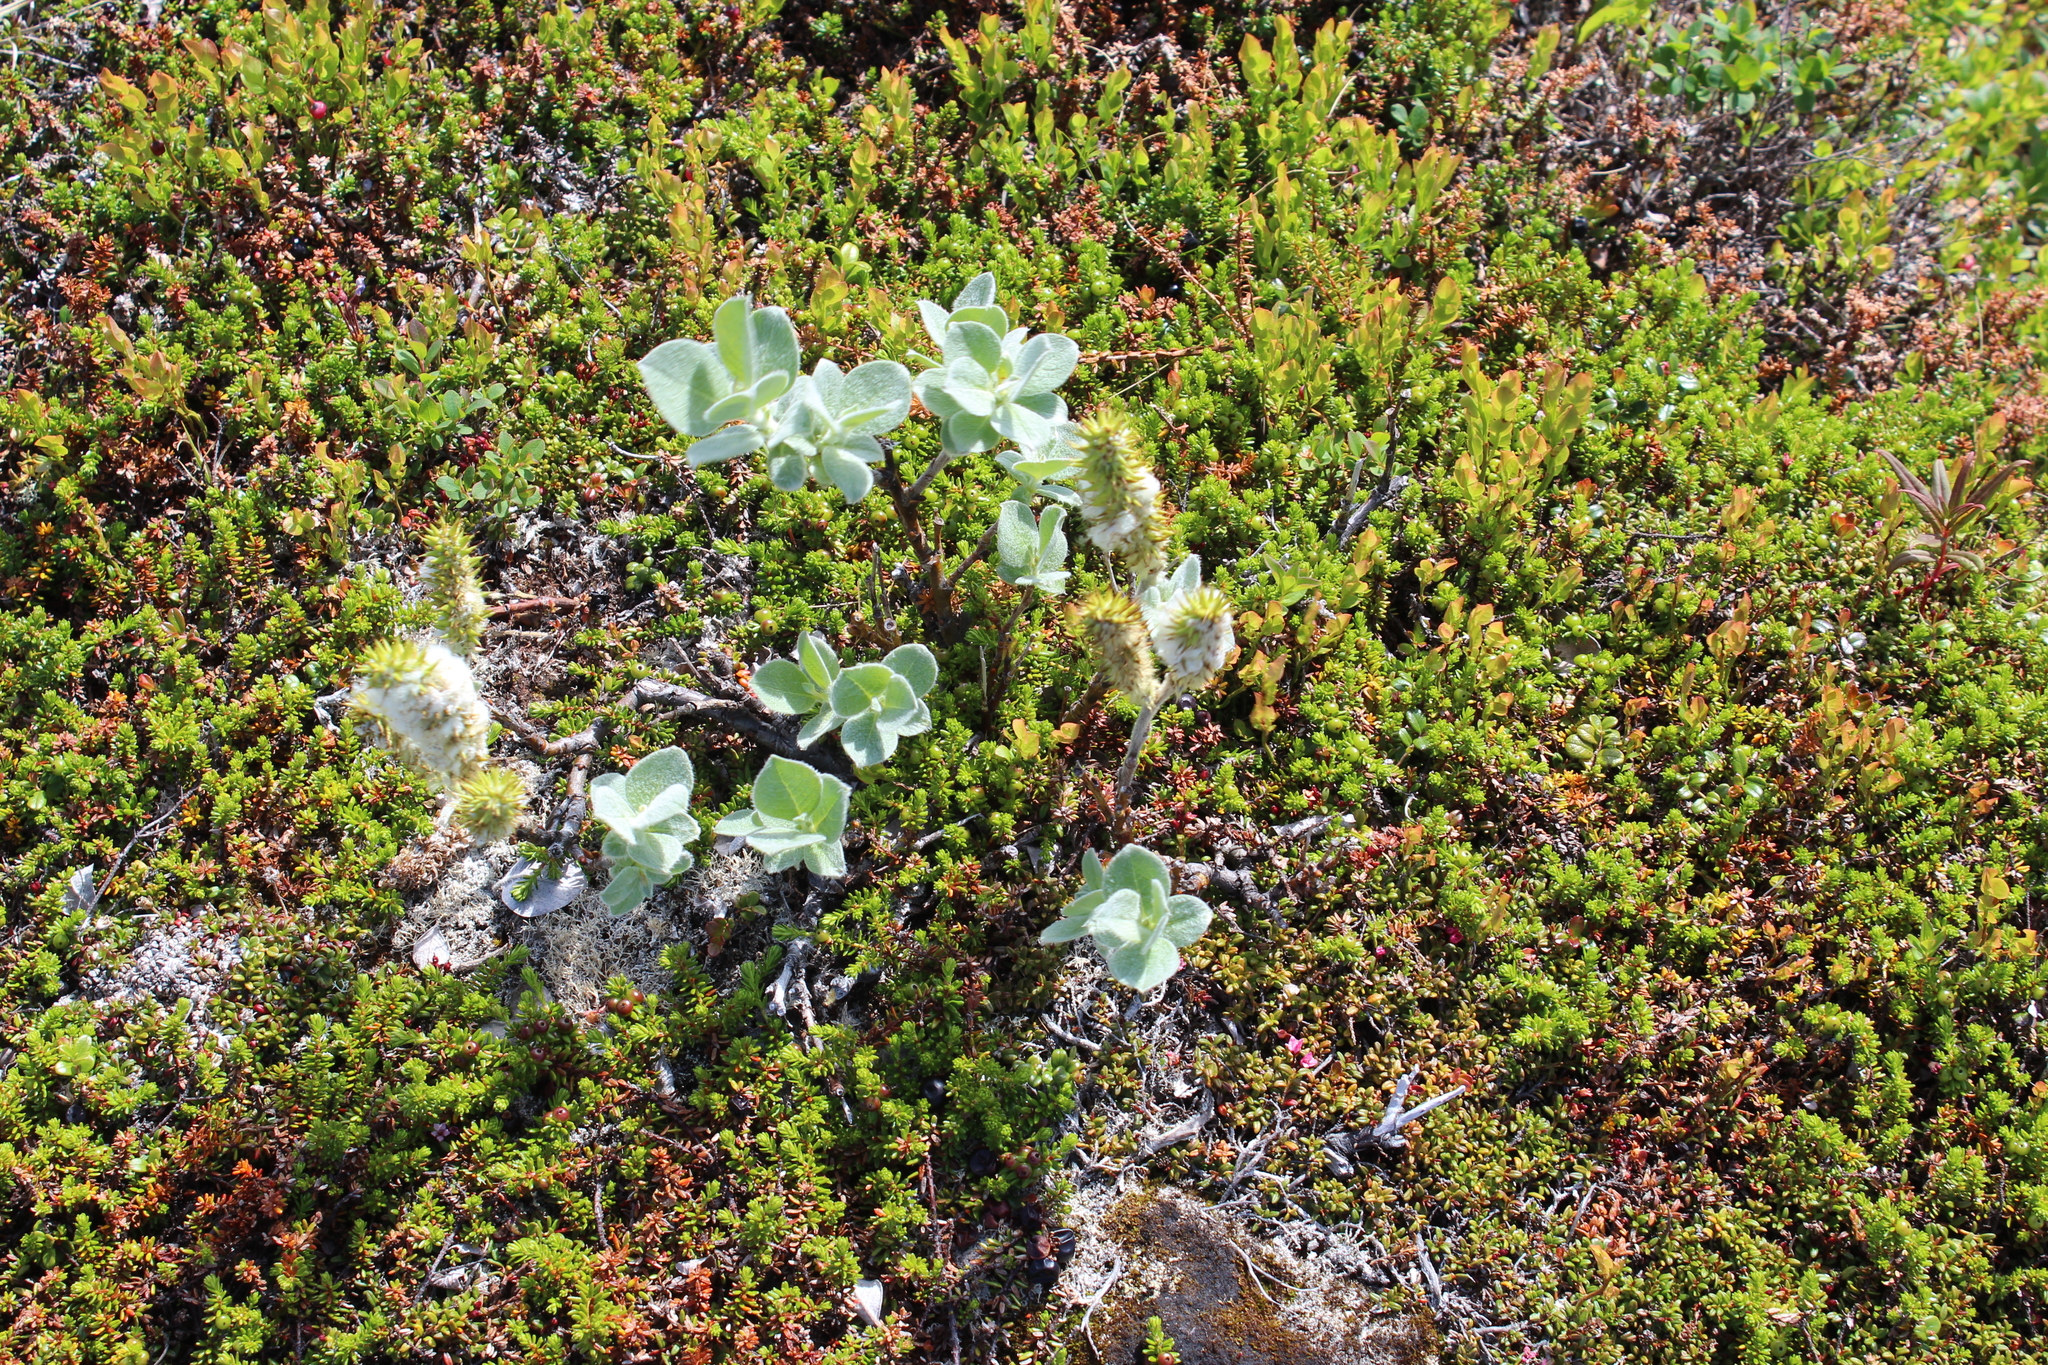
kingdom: Plantae
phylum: Tracheophyta
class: Magnoliopsida
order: Malpighiales
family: Salicaceae
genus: Salix
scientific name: Salix lanata
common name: Woolly willow
